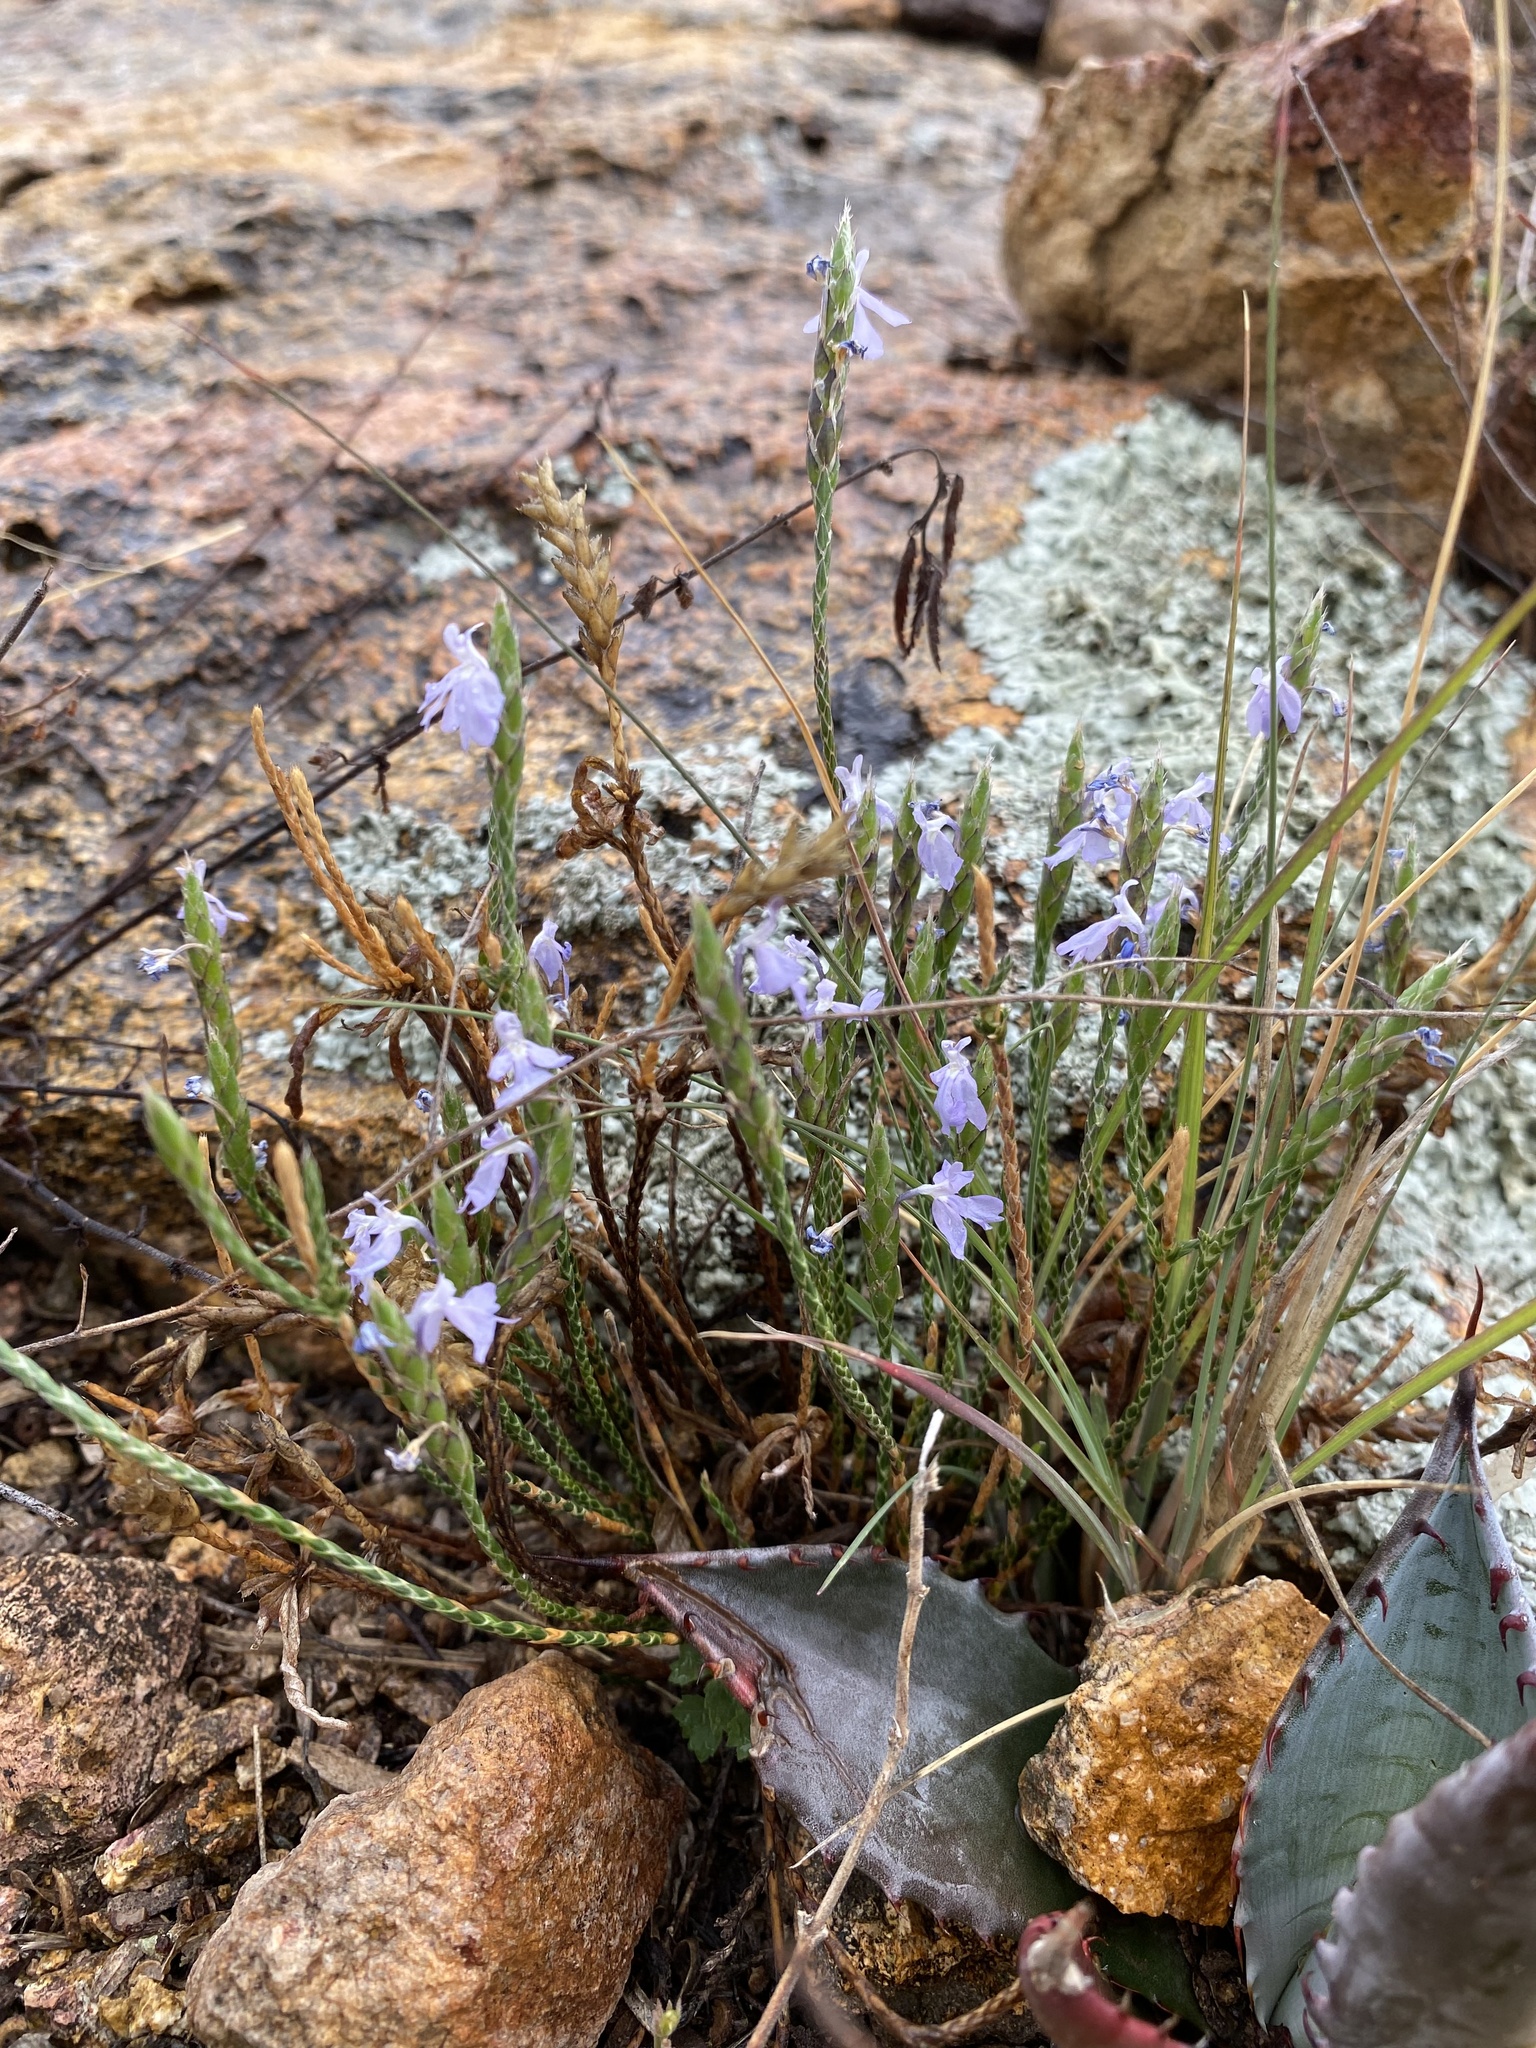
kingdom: Plantae
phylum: Tracheophyta
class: Magnoliopsida
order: Lamiales
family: Acanthaceae
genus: Elytraria
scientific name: Elytraria imbricata
